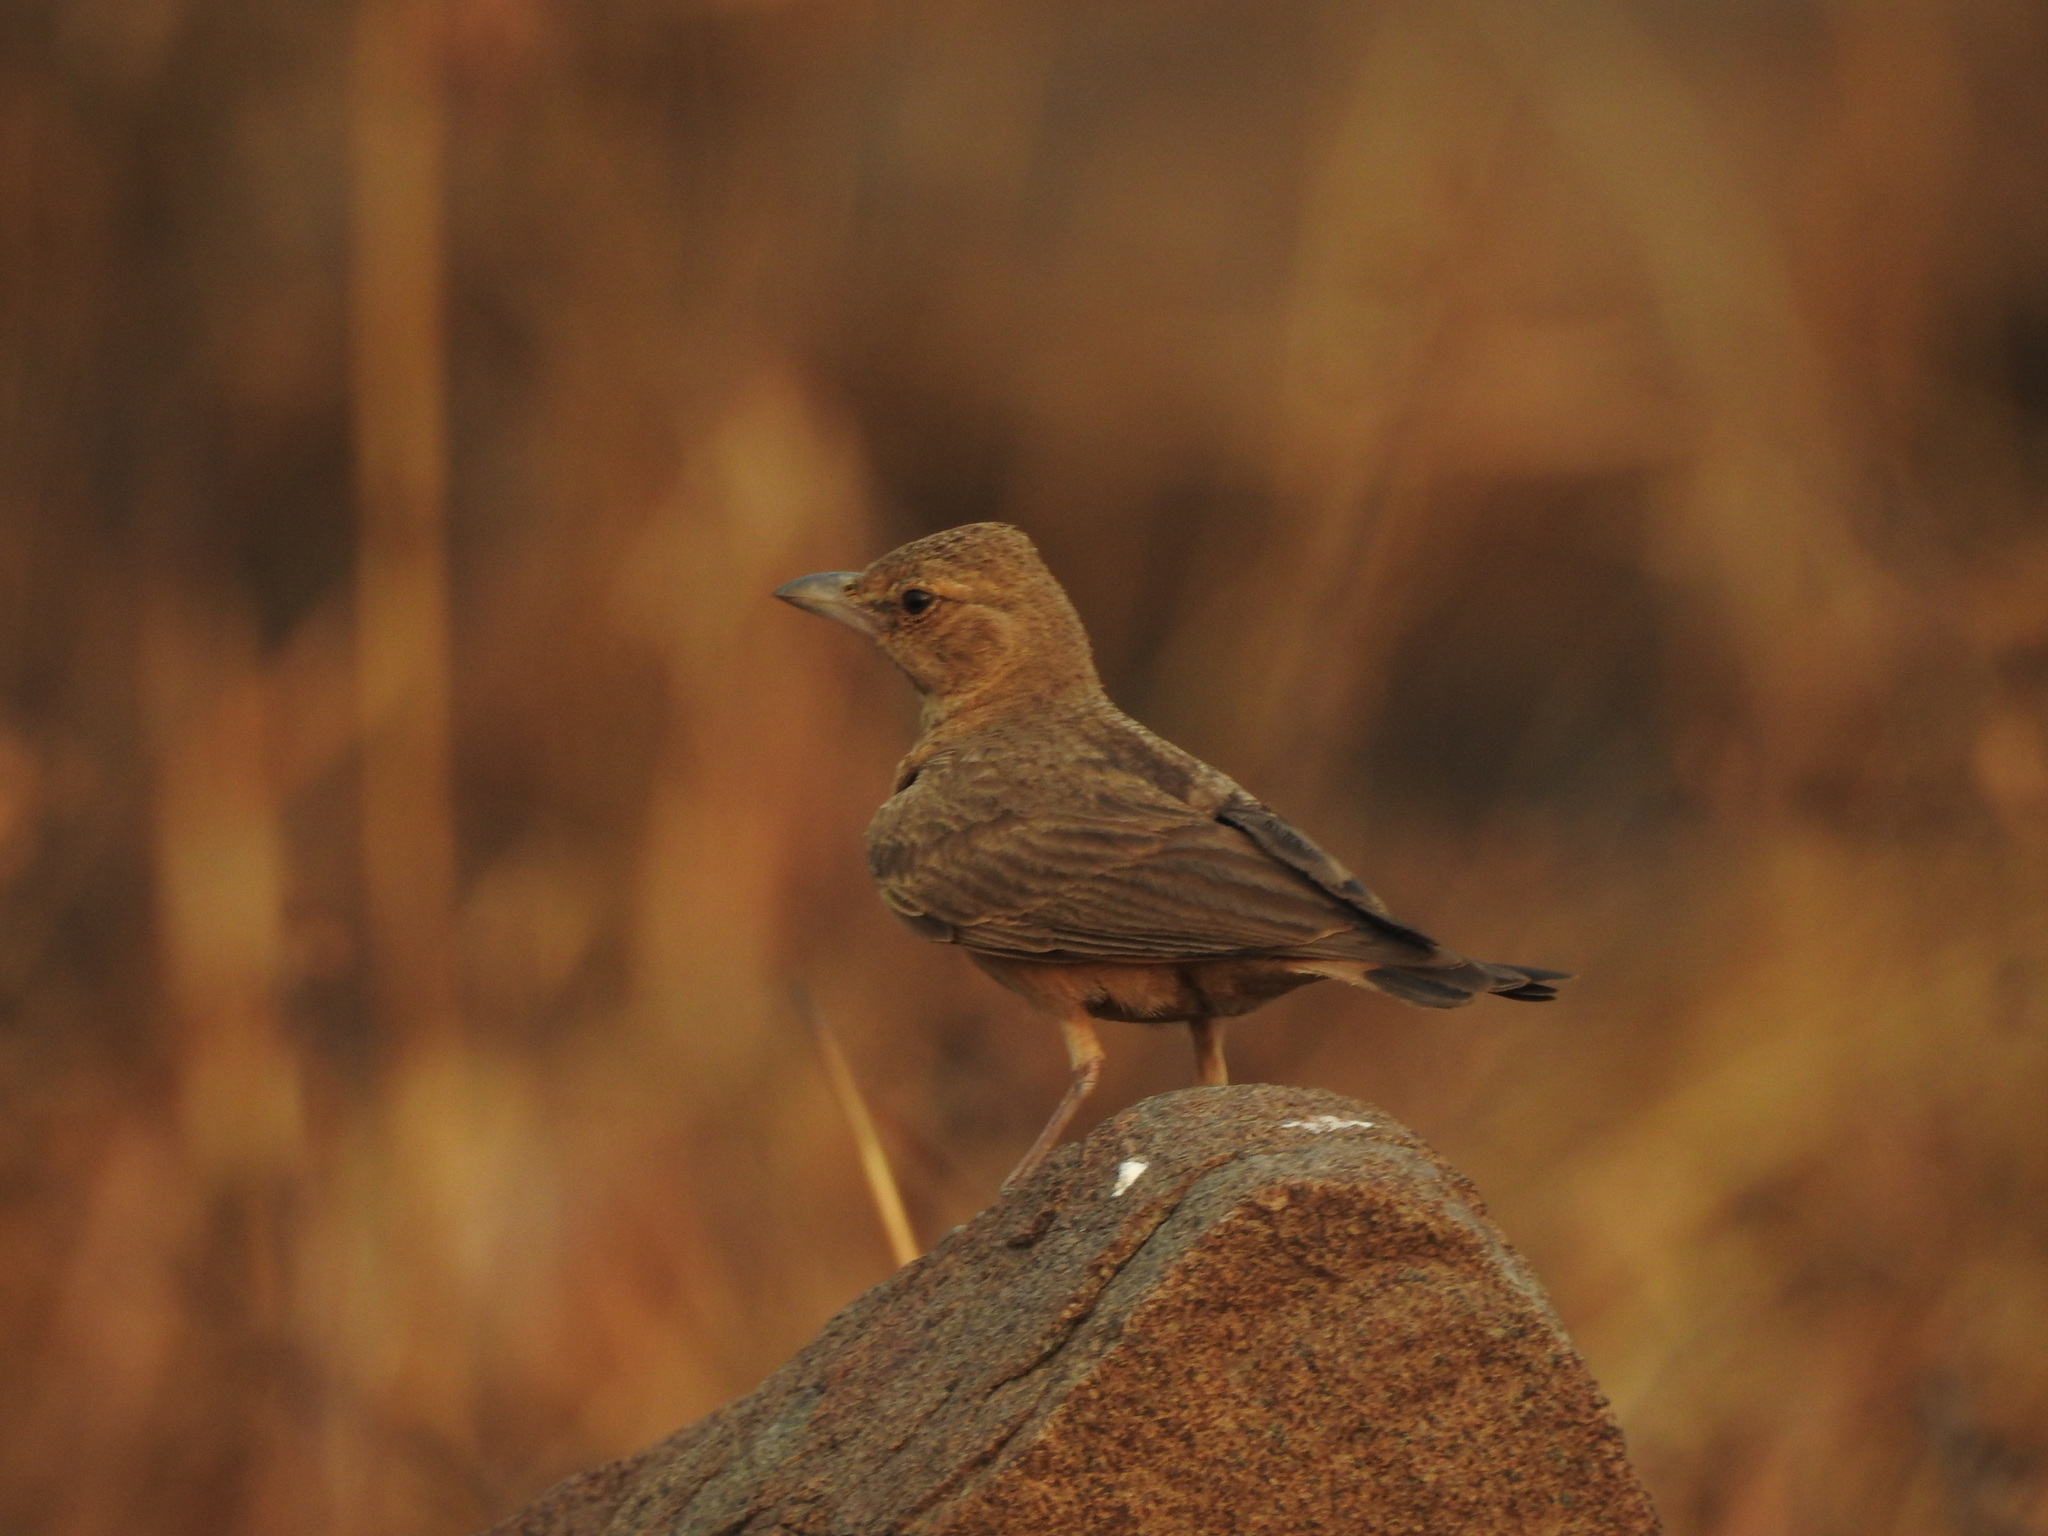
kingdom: Animalia
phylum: Chordata
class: Aves
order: Passeriformes
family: Alaudidae
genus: Ammomanes
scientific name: Ammomanes phoenicura
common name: Rufous-tailed lark
